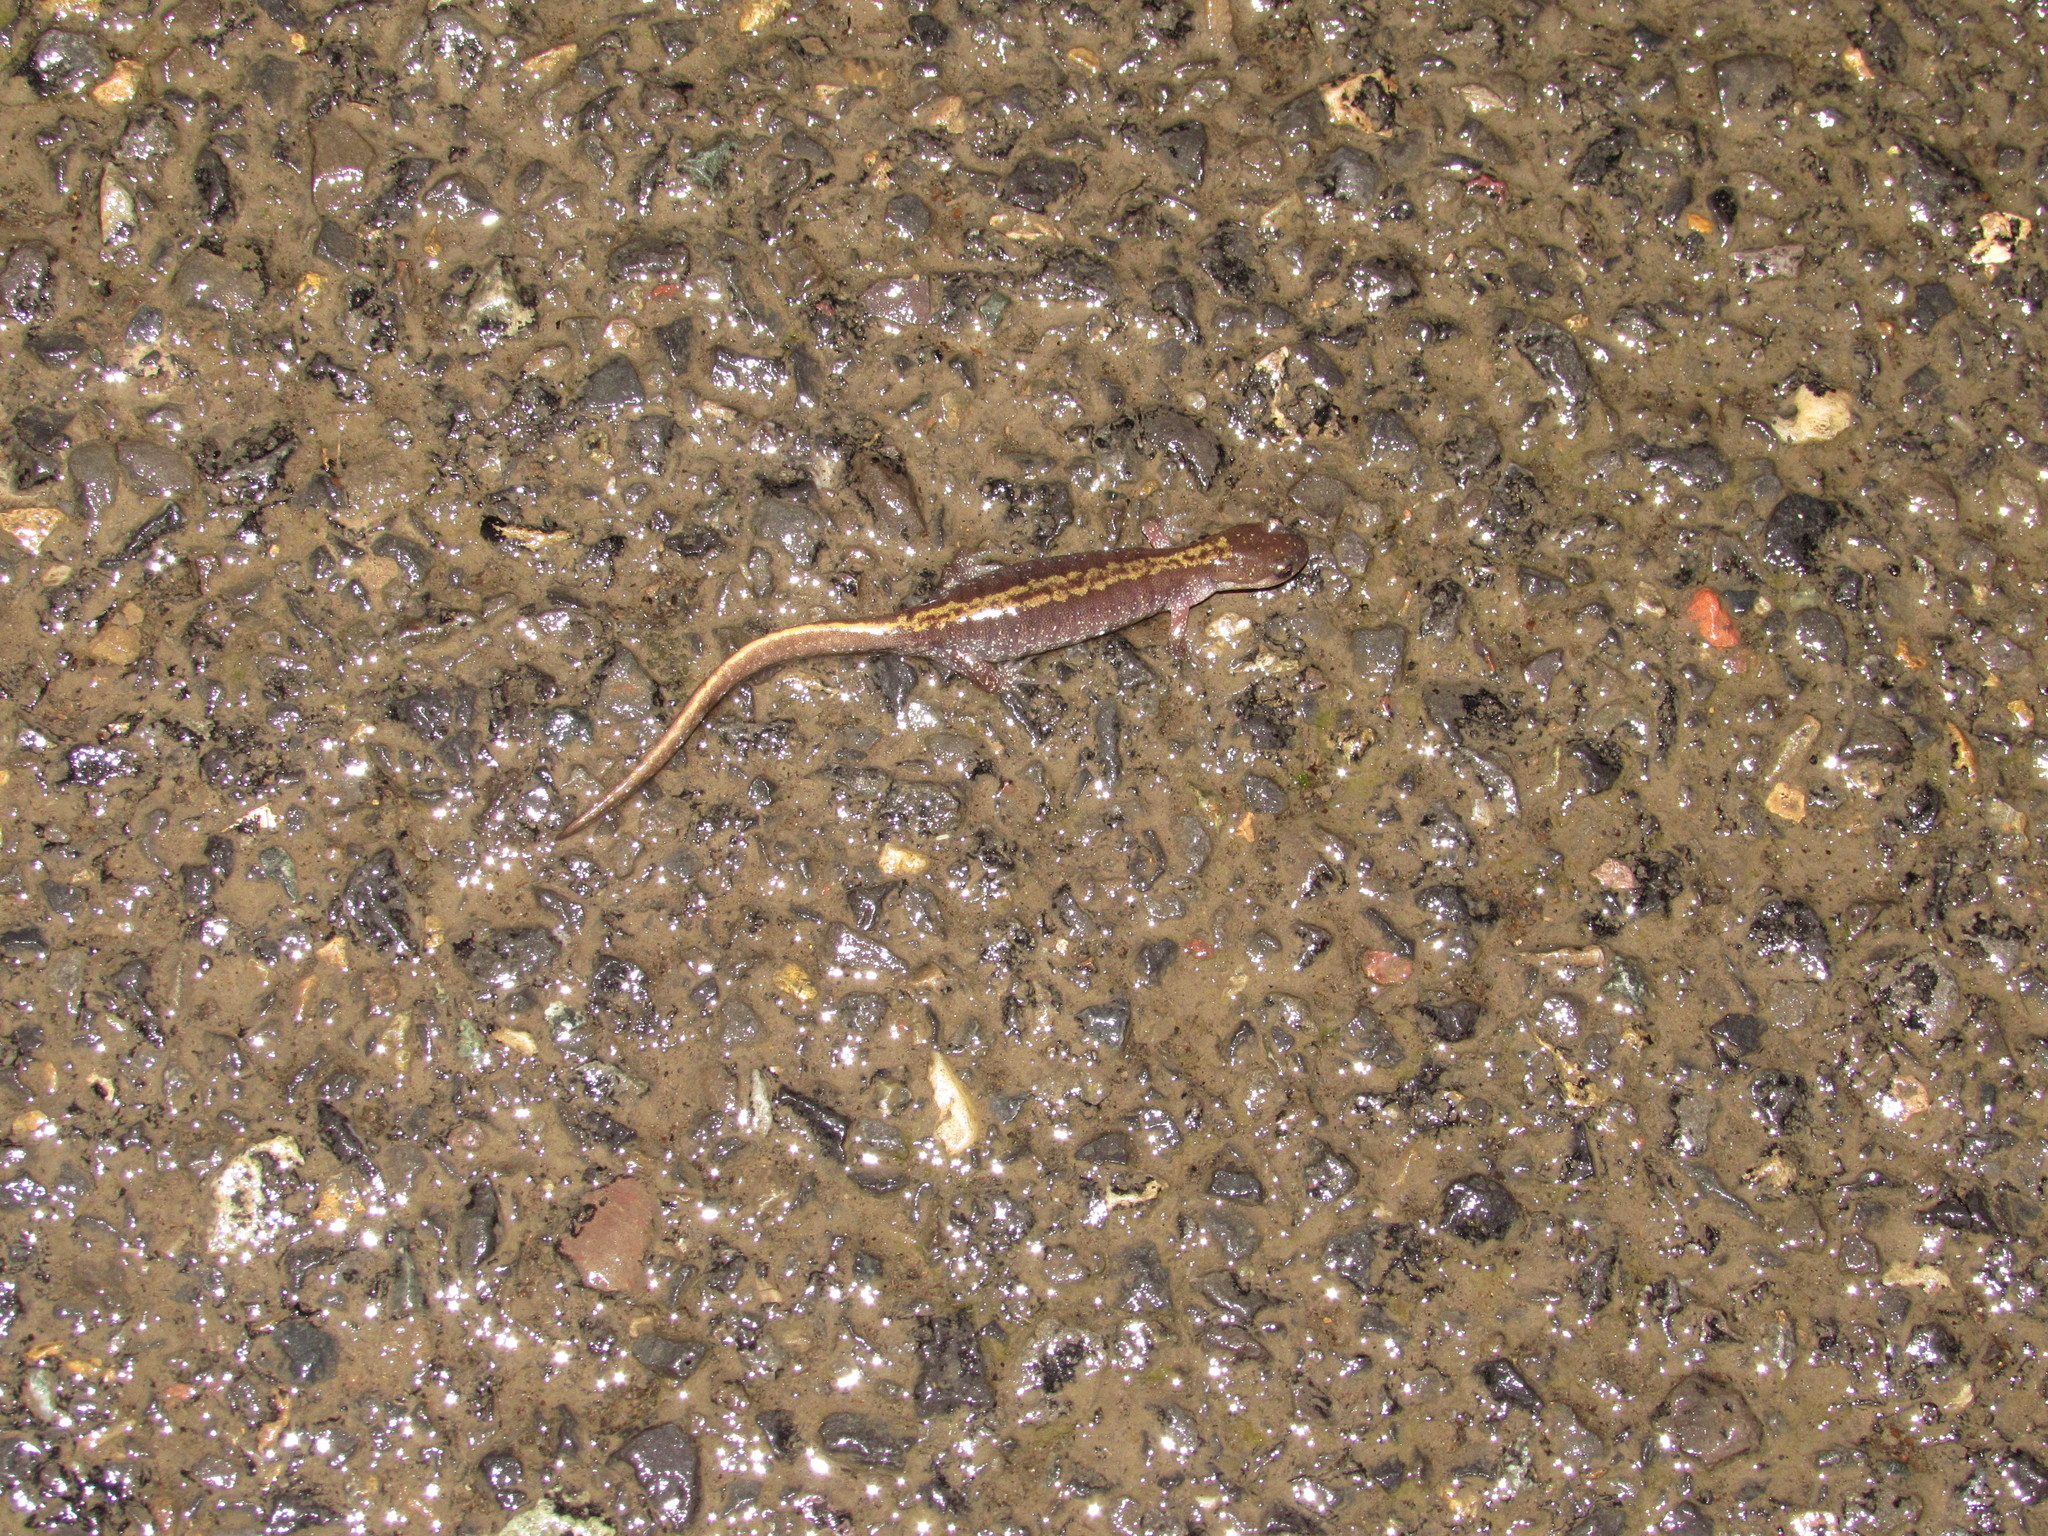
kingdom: Animalia
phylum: Chordata
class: Amphibia
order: Caudata
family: Ambystomatidae
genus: Ambystoma
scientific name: Ambystoma macrodactylum
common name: Long-toed salamander
